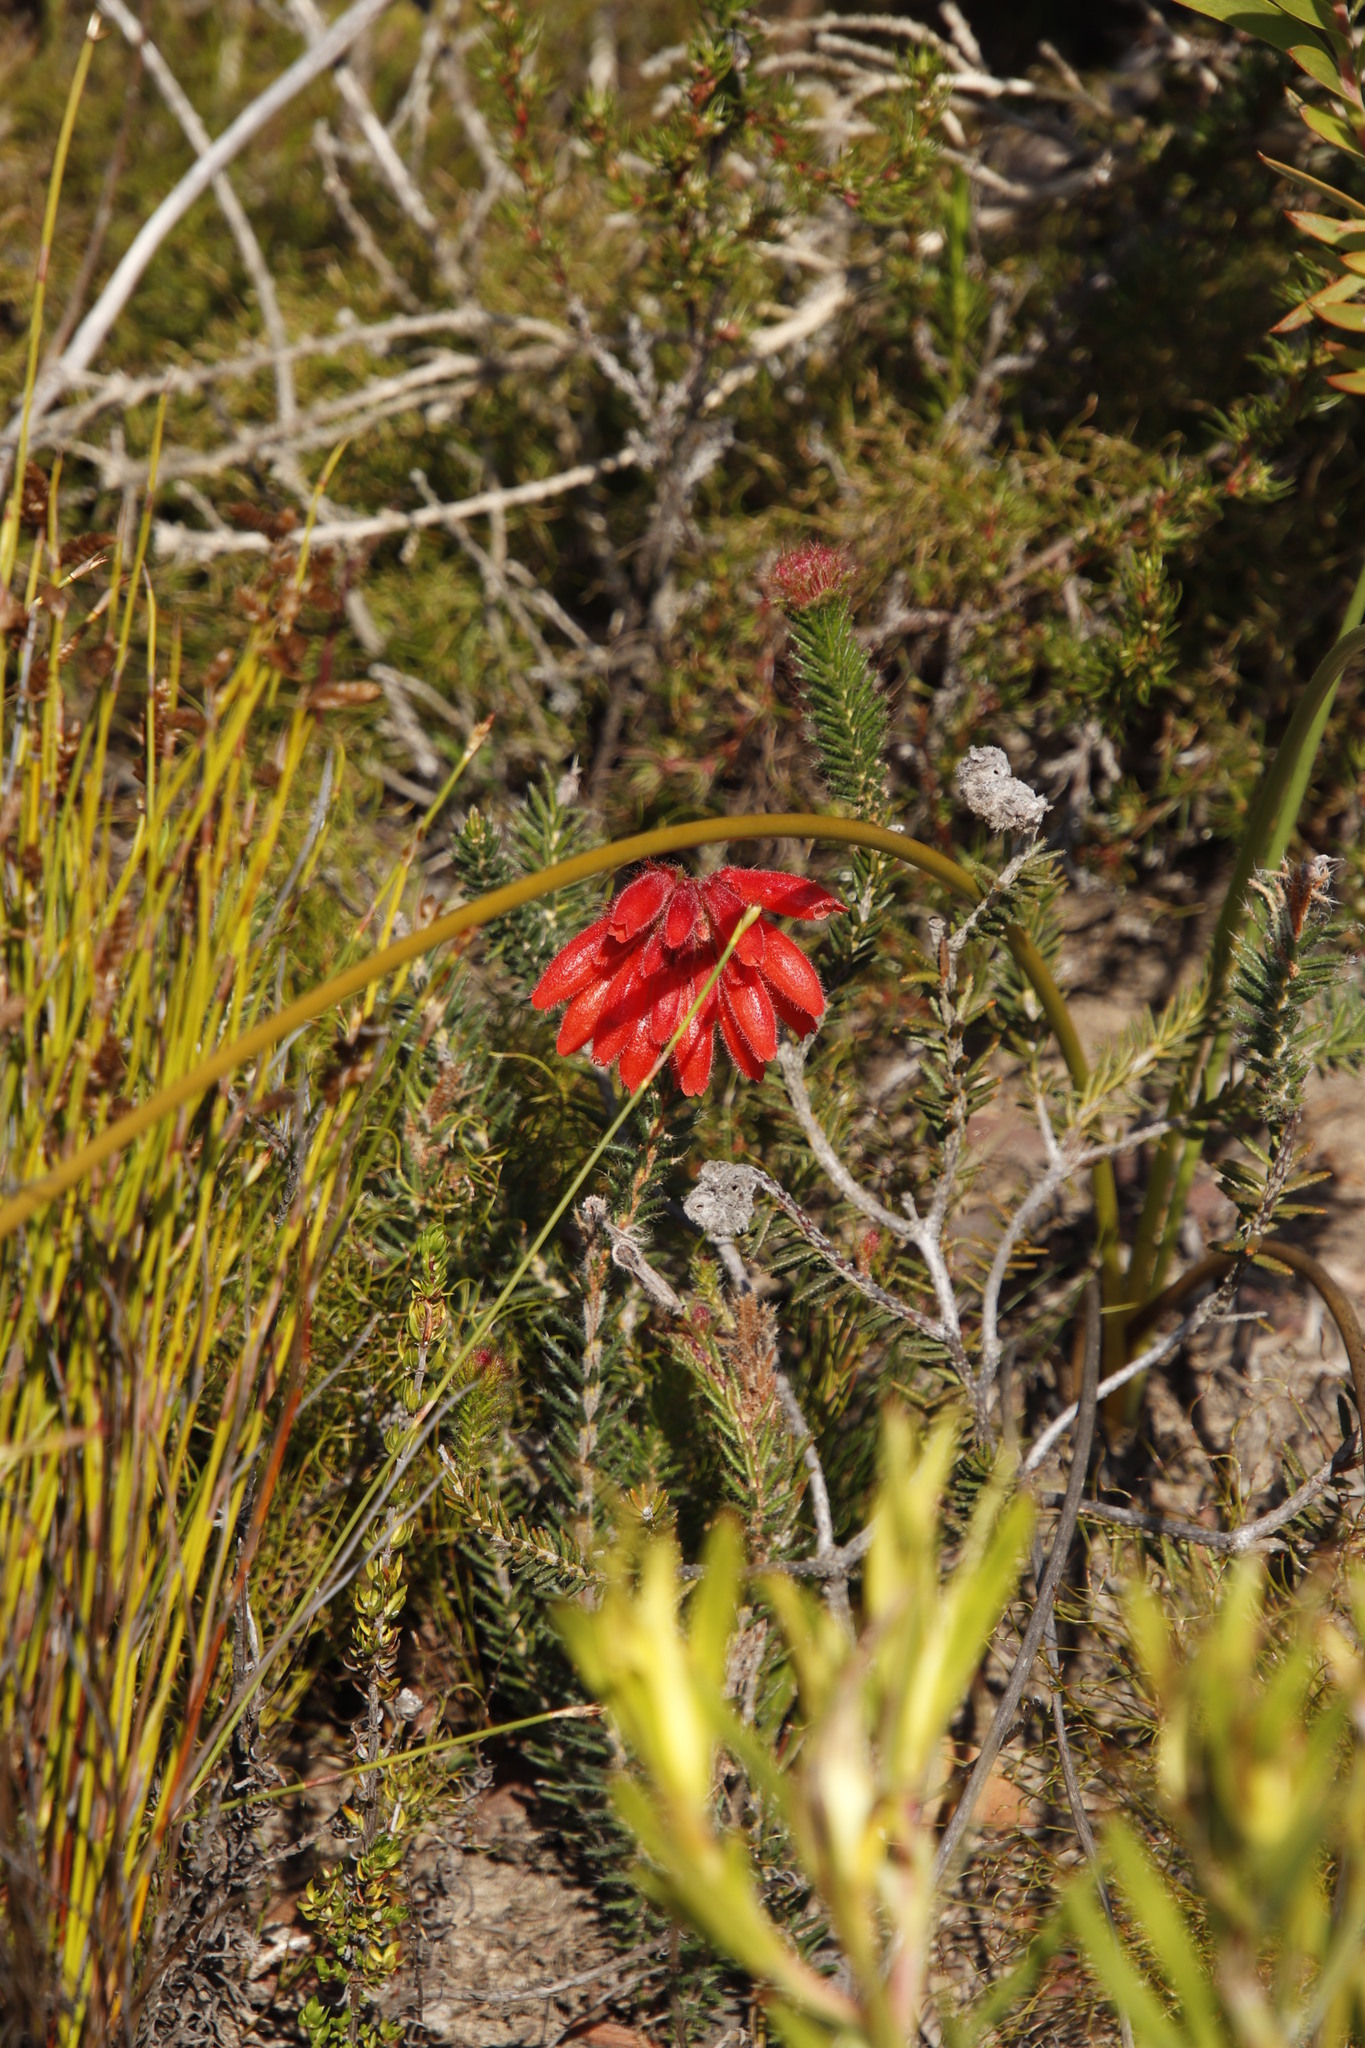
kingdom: Plantae
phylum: Tracheophyta
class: Magnoliopsida
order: Ericales
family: Ericaceae
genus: Erica
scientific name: Erica cerinthoides
